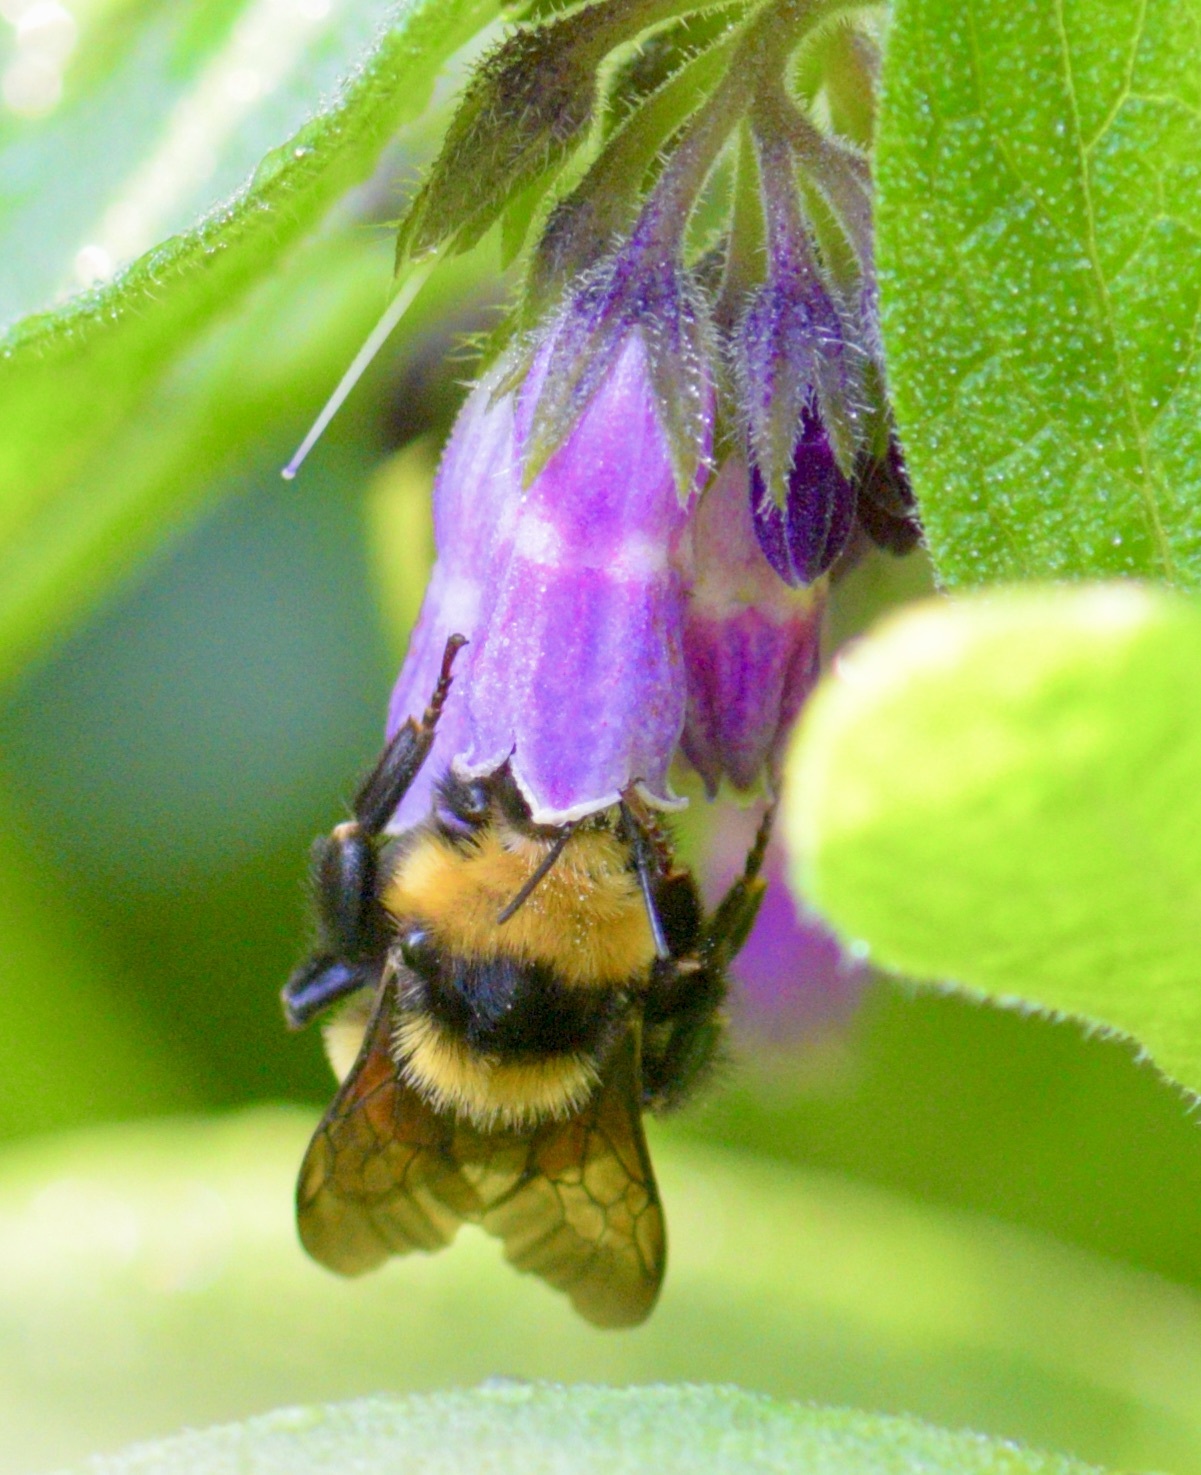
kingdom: Animalia
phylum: Arthropoda
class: Insecta
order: Hymenoptera
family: Apidae
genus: Bombus
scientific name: Bombus borealis
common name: Northern amber bumble bee
